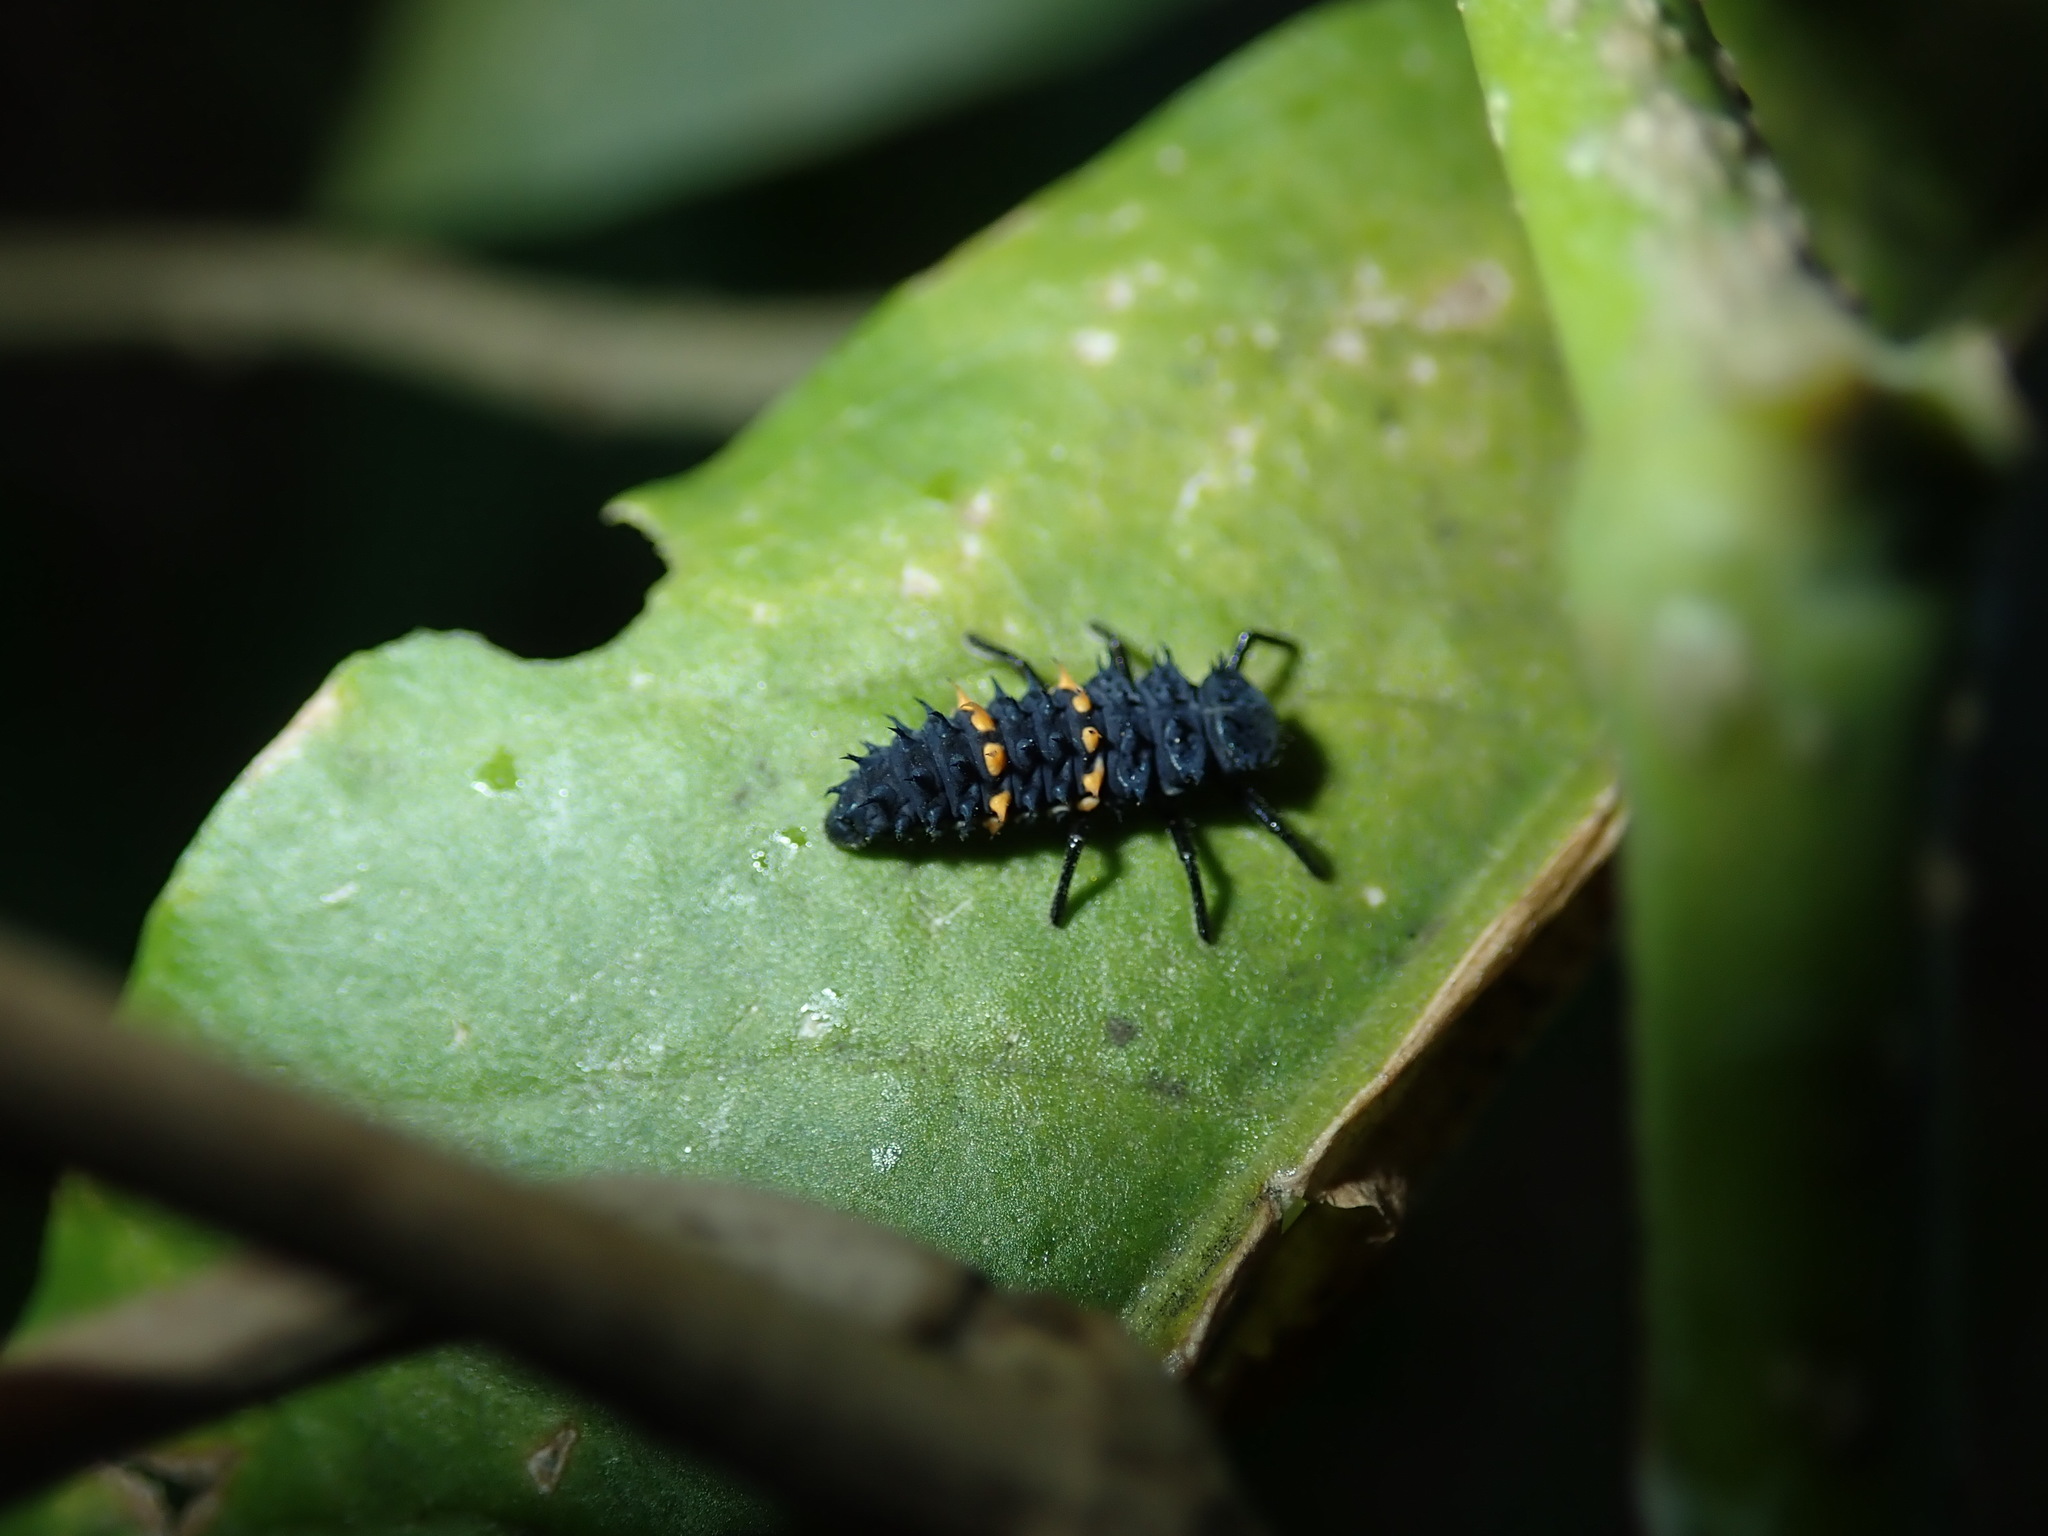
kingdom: Animalia
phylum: Arthropoda
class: Insecta
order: Coleoptera
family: Coccinellidae
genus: Harmonia
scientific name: Harmonia conformis
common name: Common spotted ladybird beetle
